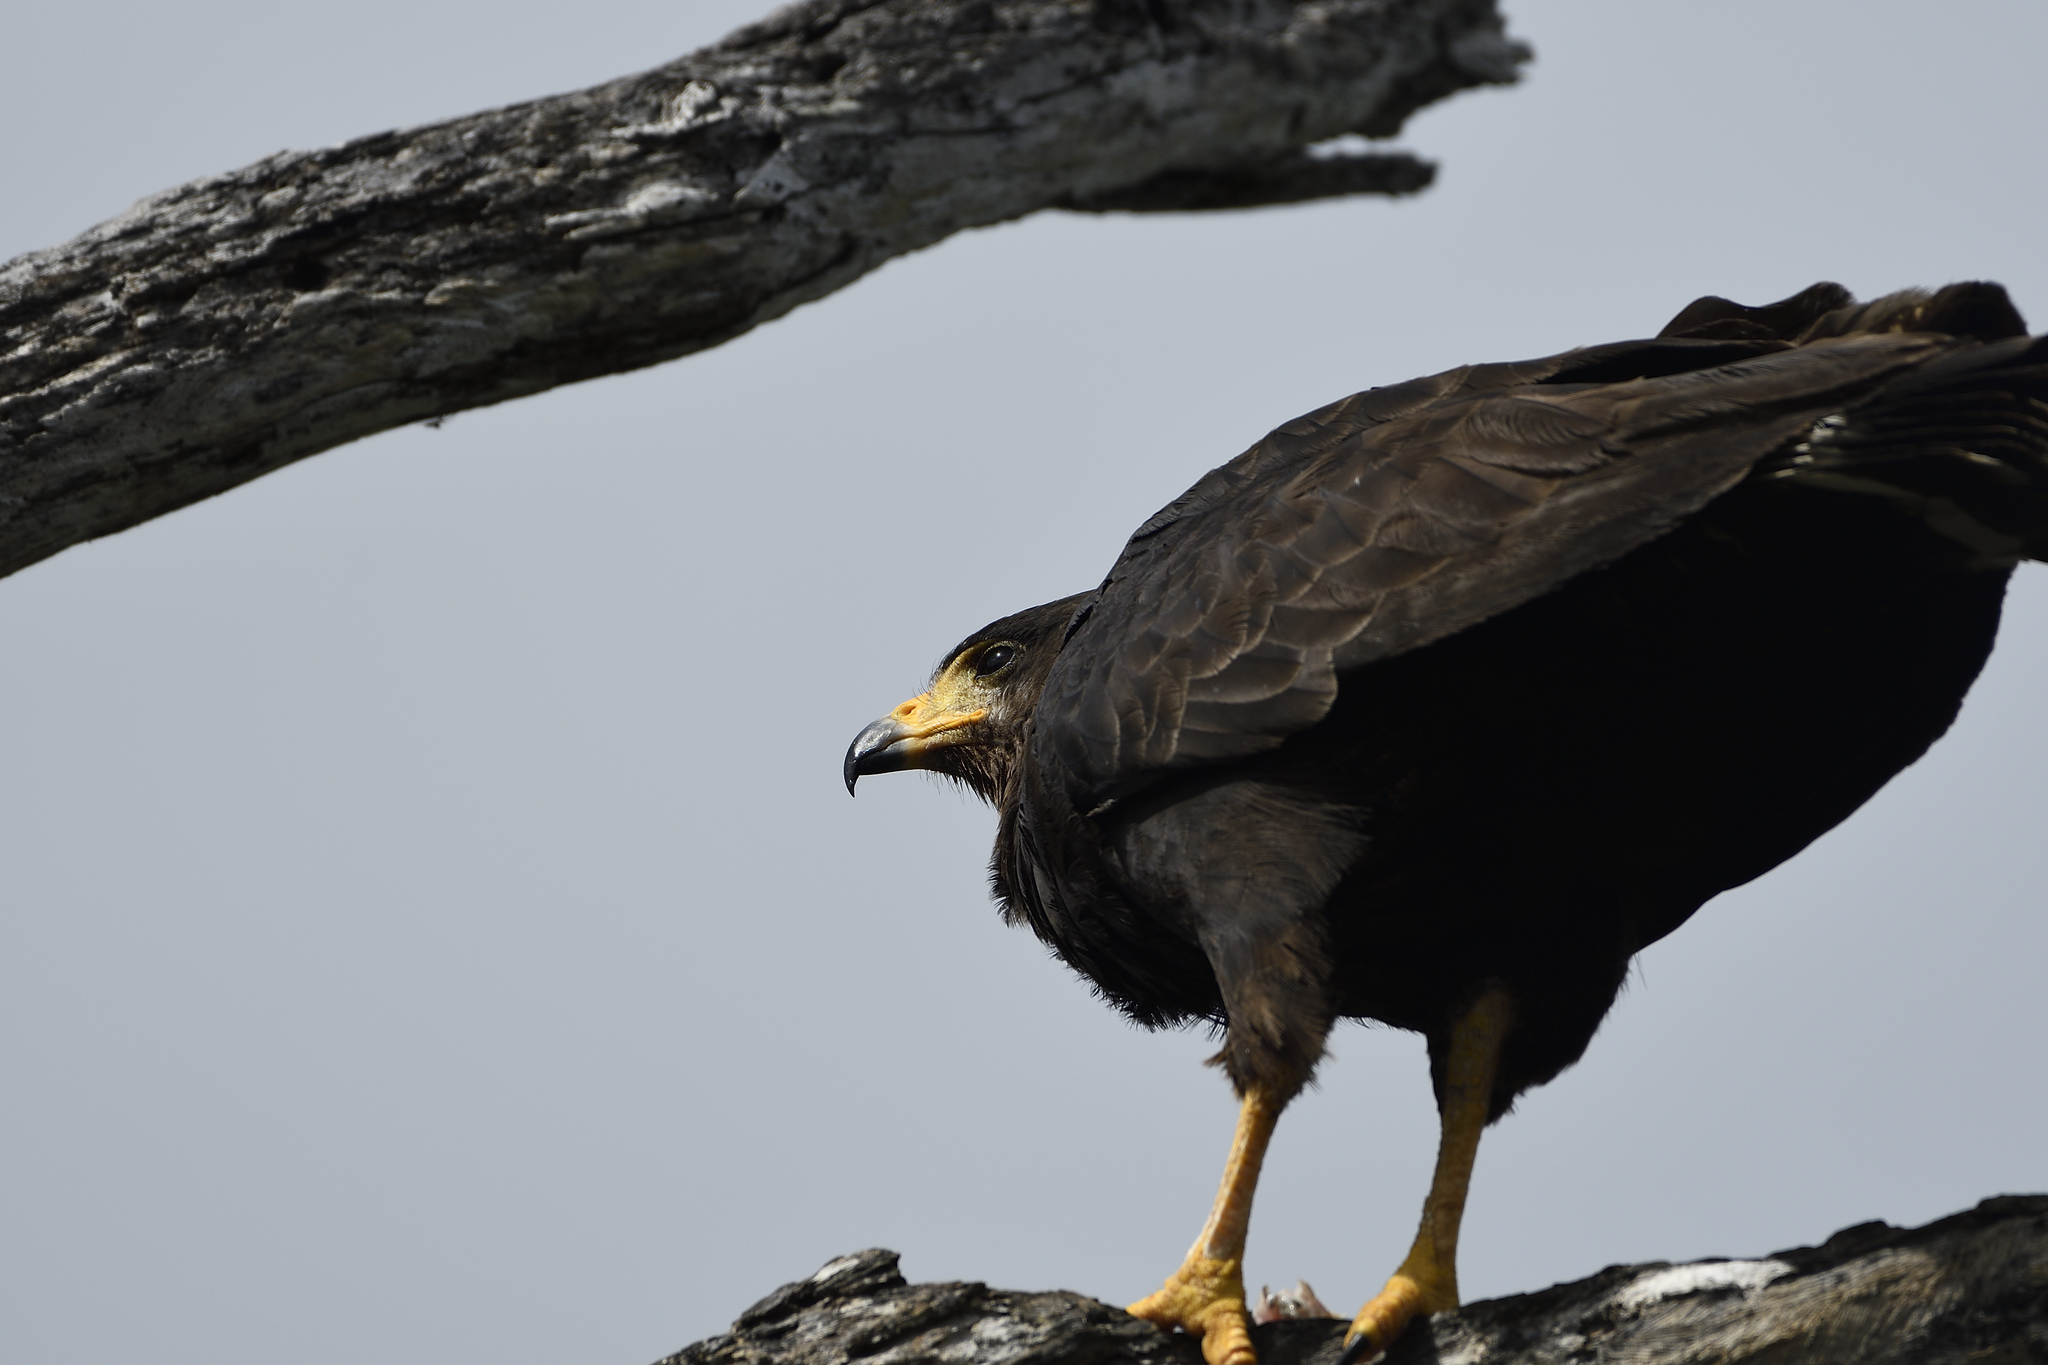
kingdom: Animalia
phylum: Chordata
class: Aves
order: Accipitriformes
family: Accipitridae
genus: Buteogallus
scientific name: Buteogallus anthracinus
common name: Common black hawk
